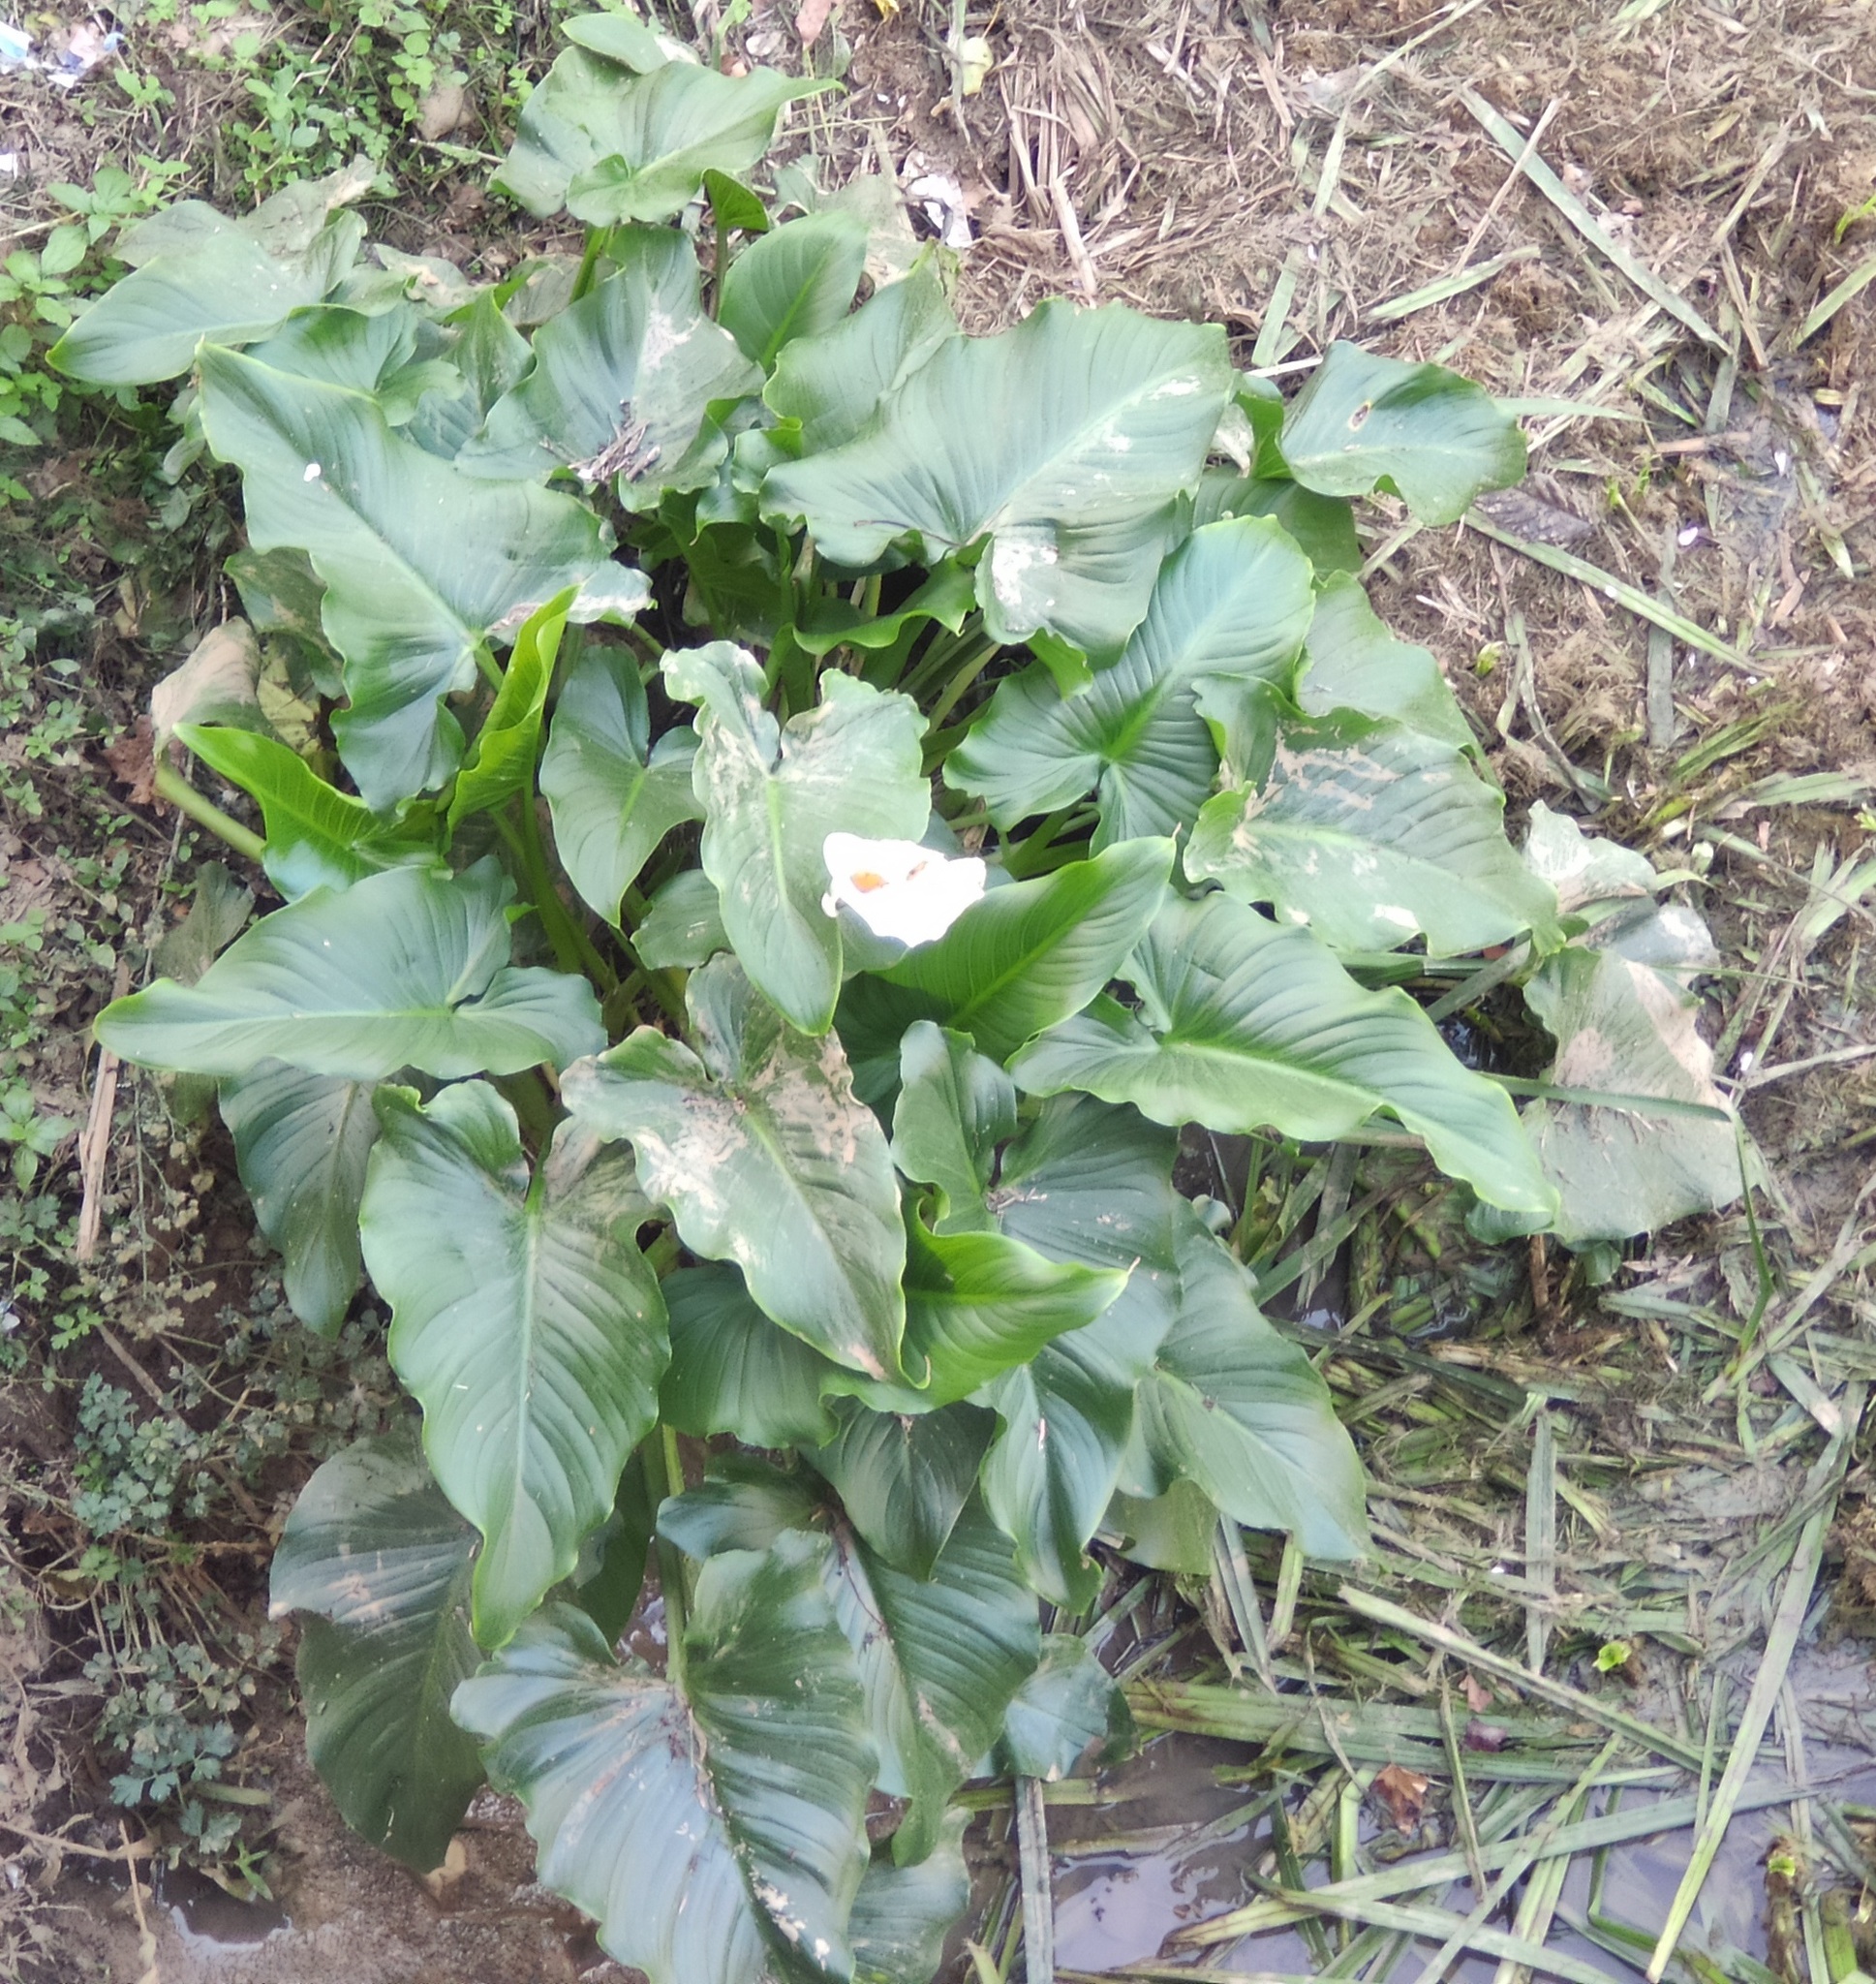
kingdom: Plantae
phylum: Tracheophyta
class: Liliopsida
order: Alismatales
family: Araceae
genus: Zantedeschia
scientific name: Zantedeschia aethiopica
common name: Altar-lily
